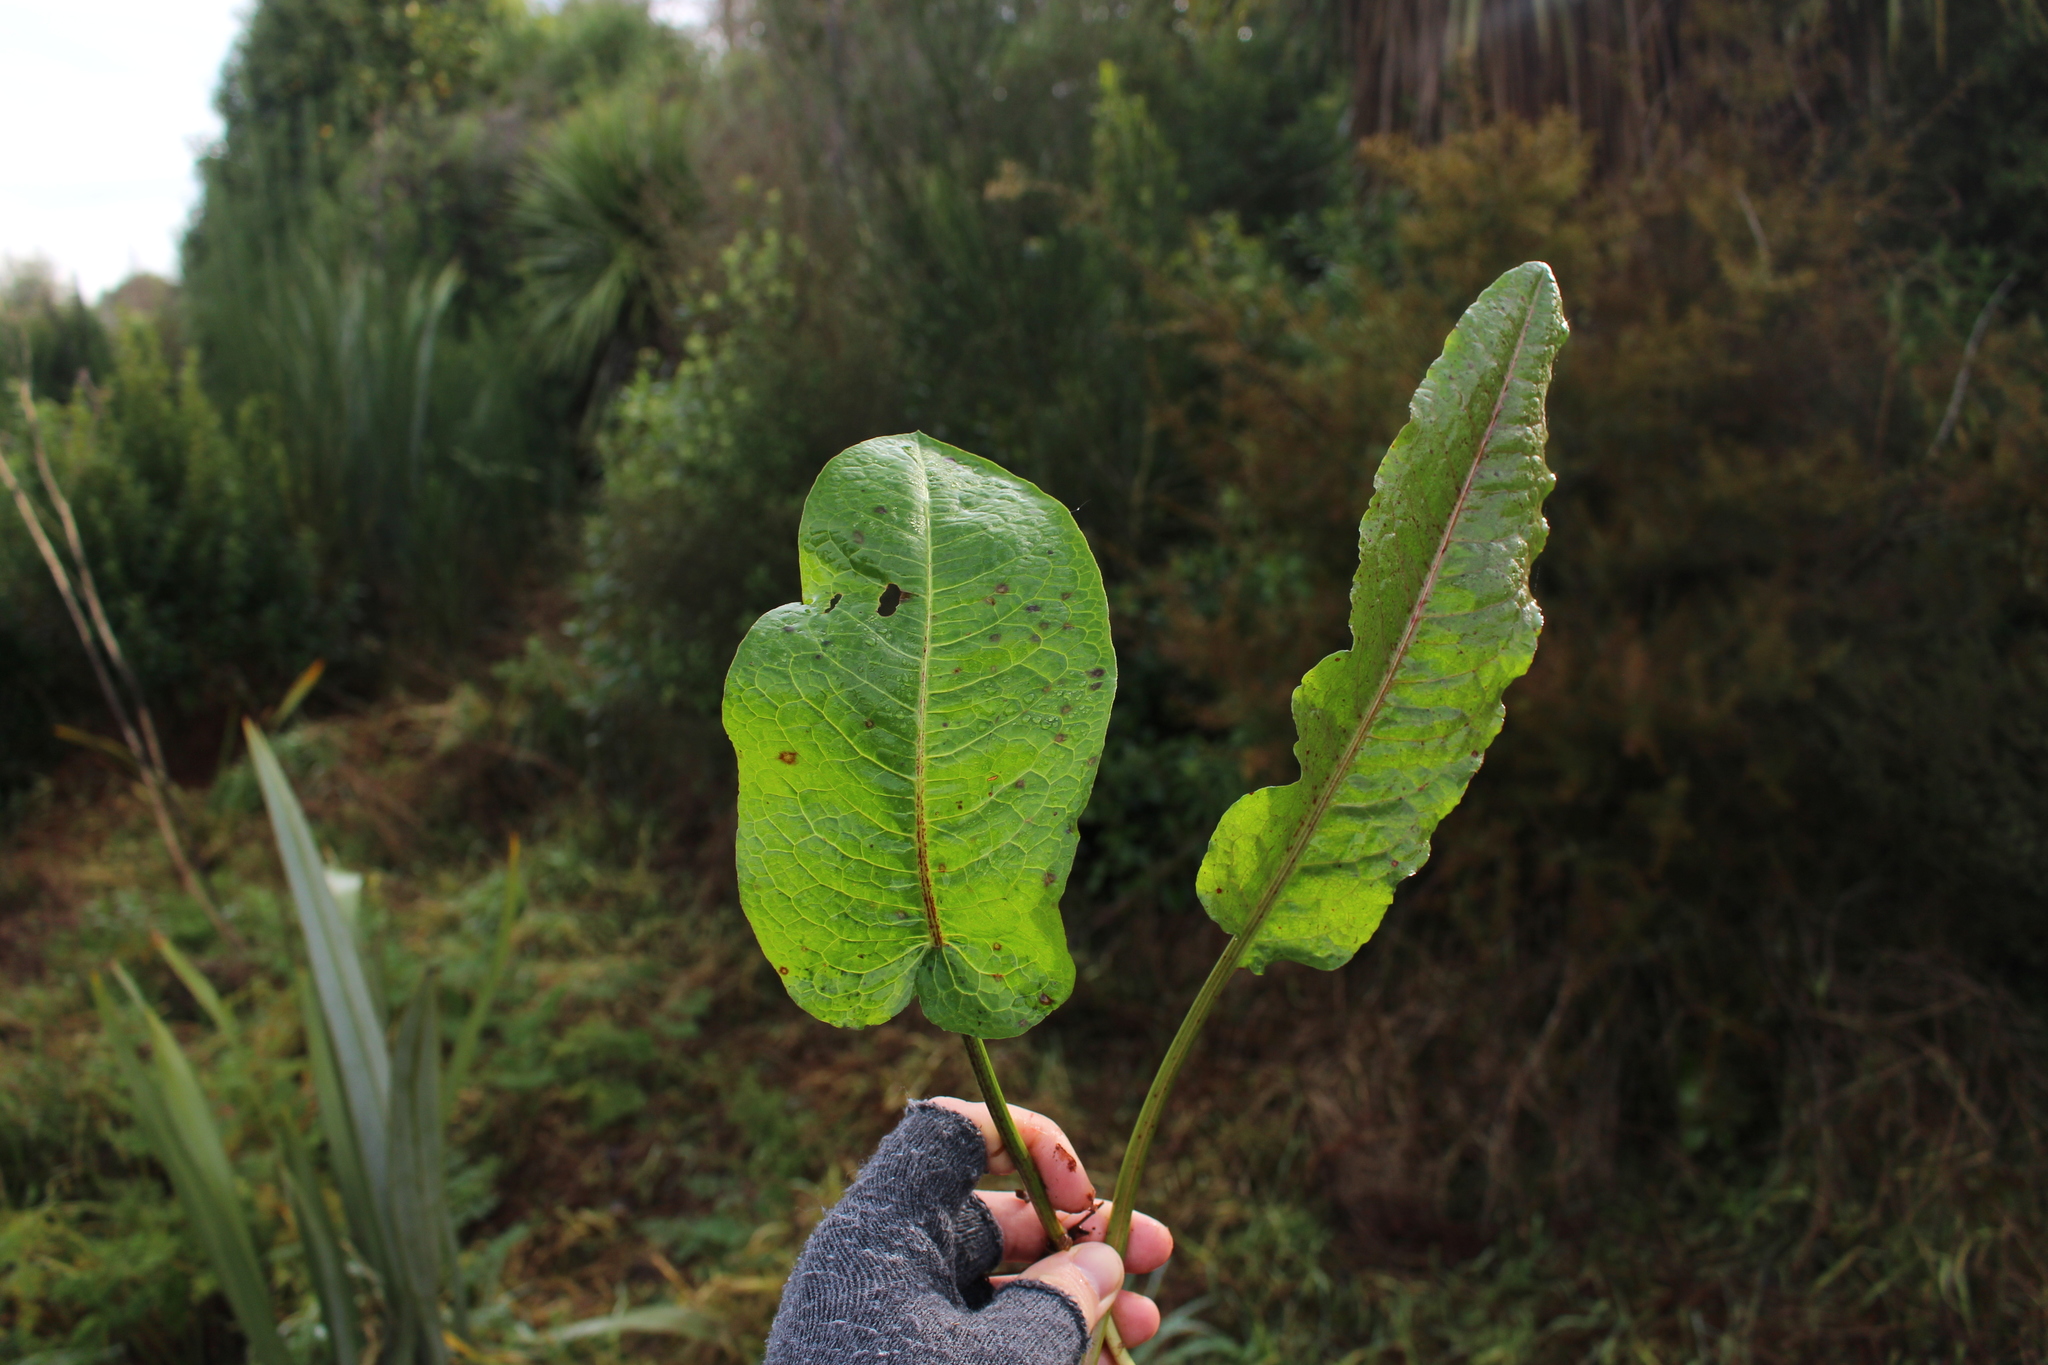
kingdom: Plantae
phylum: Tracheophyta
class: Magnoliopsida
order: Caryophyllales
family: Polygonaceae
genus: Rumex
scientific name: Rumex obtusifolius
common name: Bitter dock
